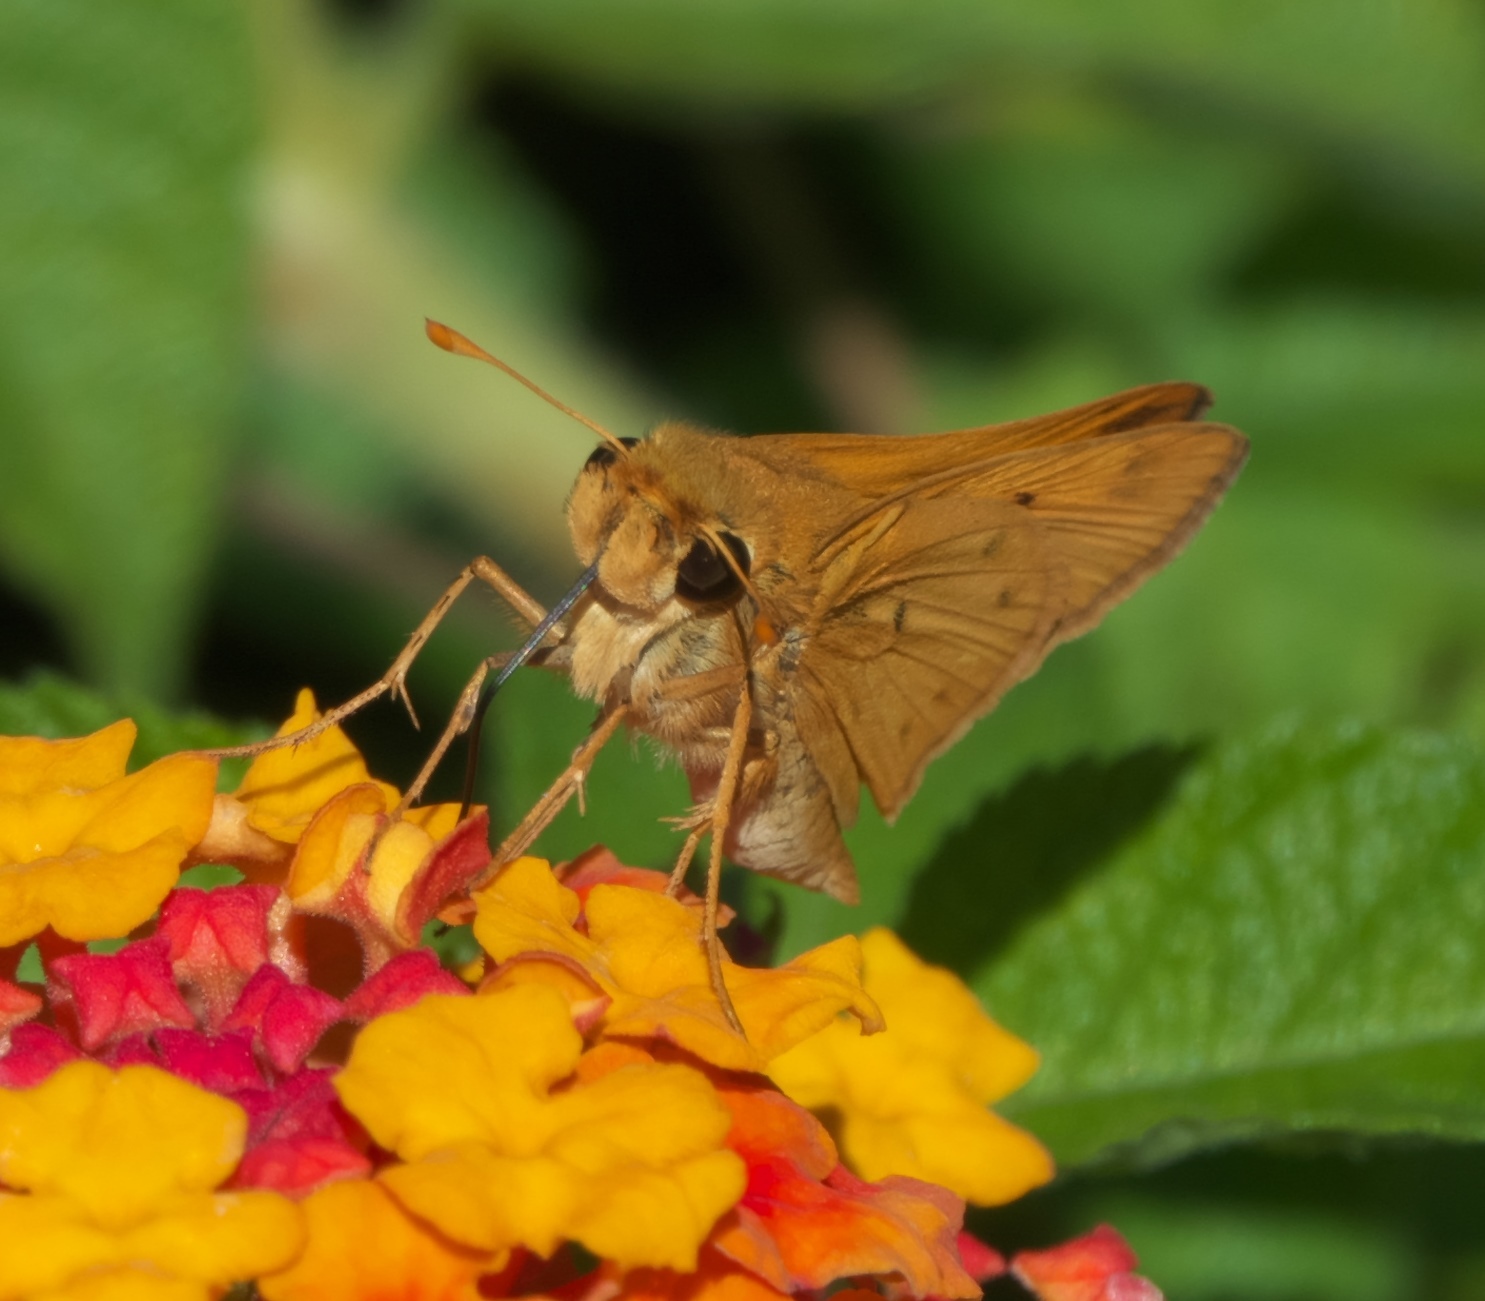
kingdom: Animalia
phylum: Arthropoda
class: Insecta
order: Lepidoptera
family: Hesperiidae
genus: Hylephila
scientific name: Hylephila phyleus
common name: Fiery skipper
